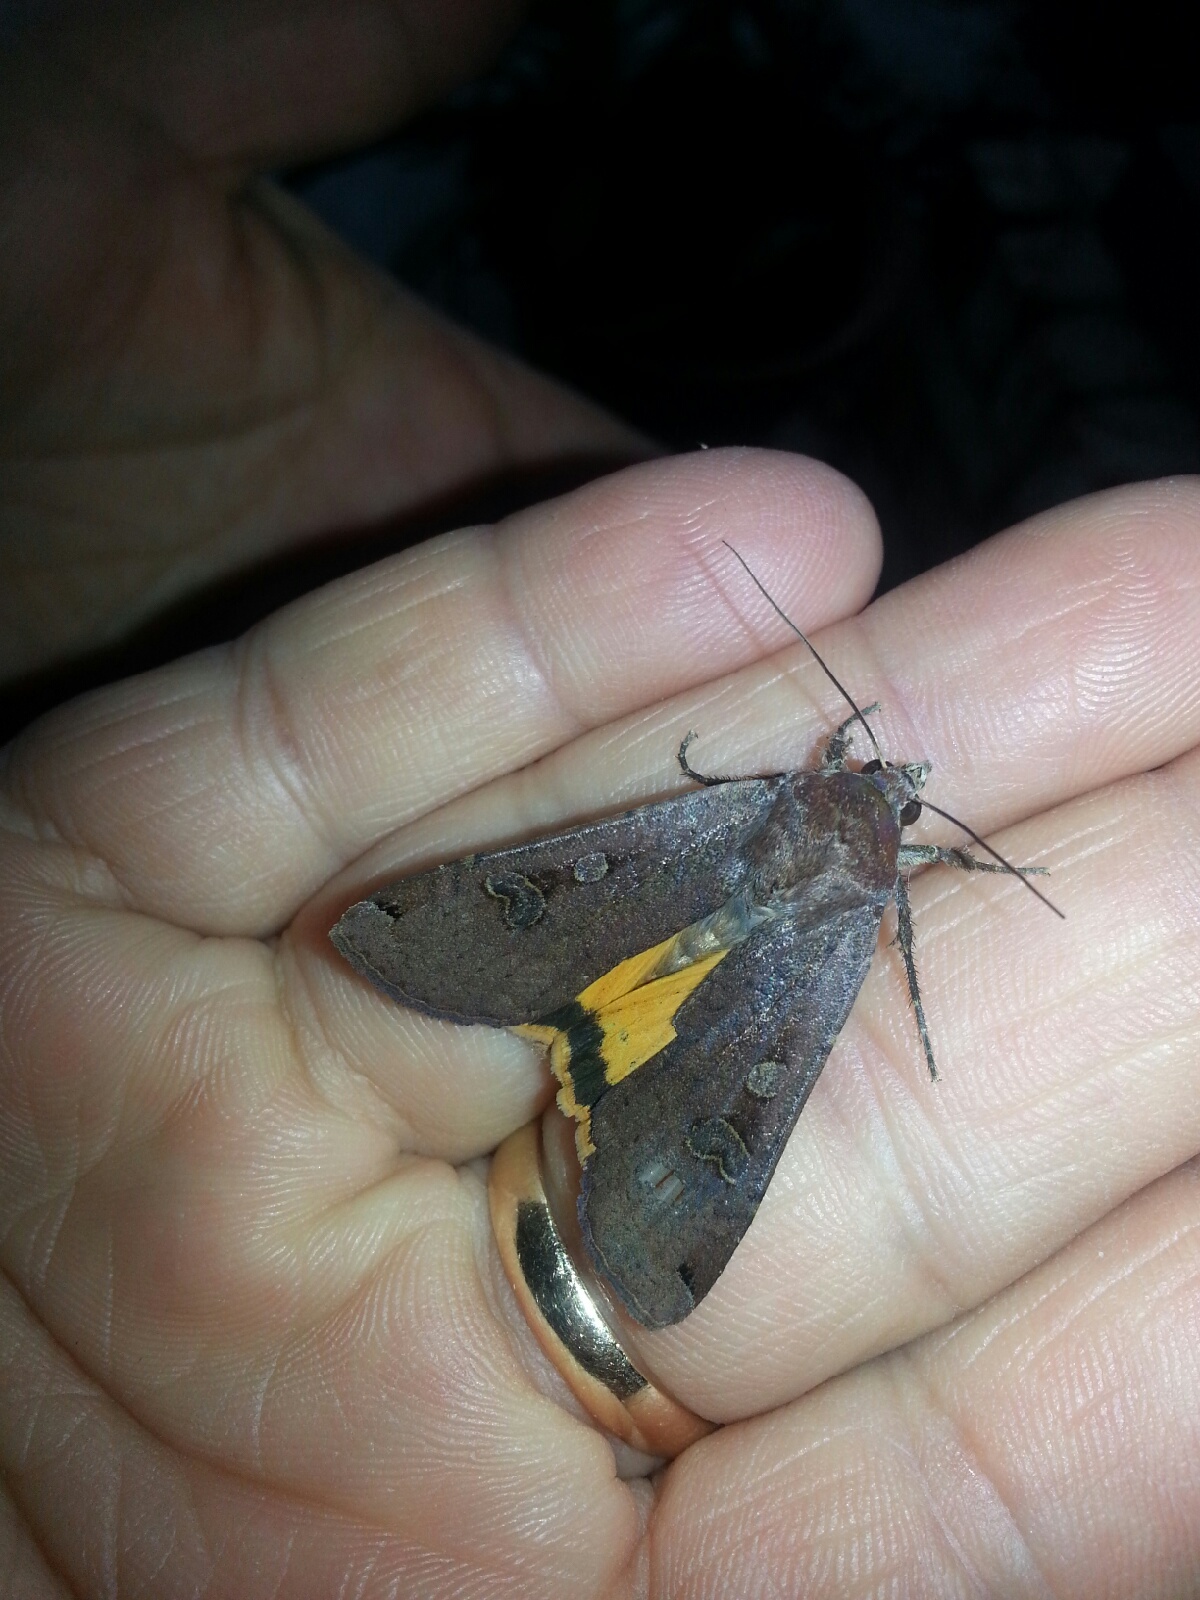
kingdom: Animalia
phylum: Arthropoda
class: Insecta
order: Lepidoptera
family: Noctuidae
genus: Noctua
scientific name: Noctua pronuba
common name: Large yellow underwing
